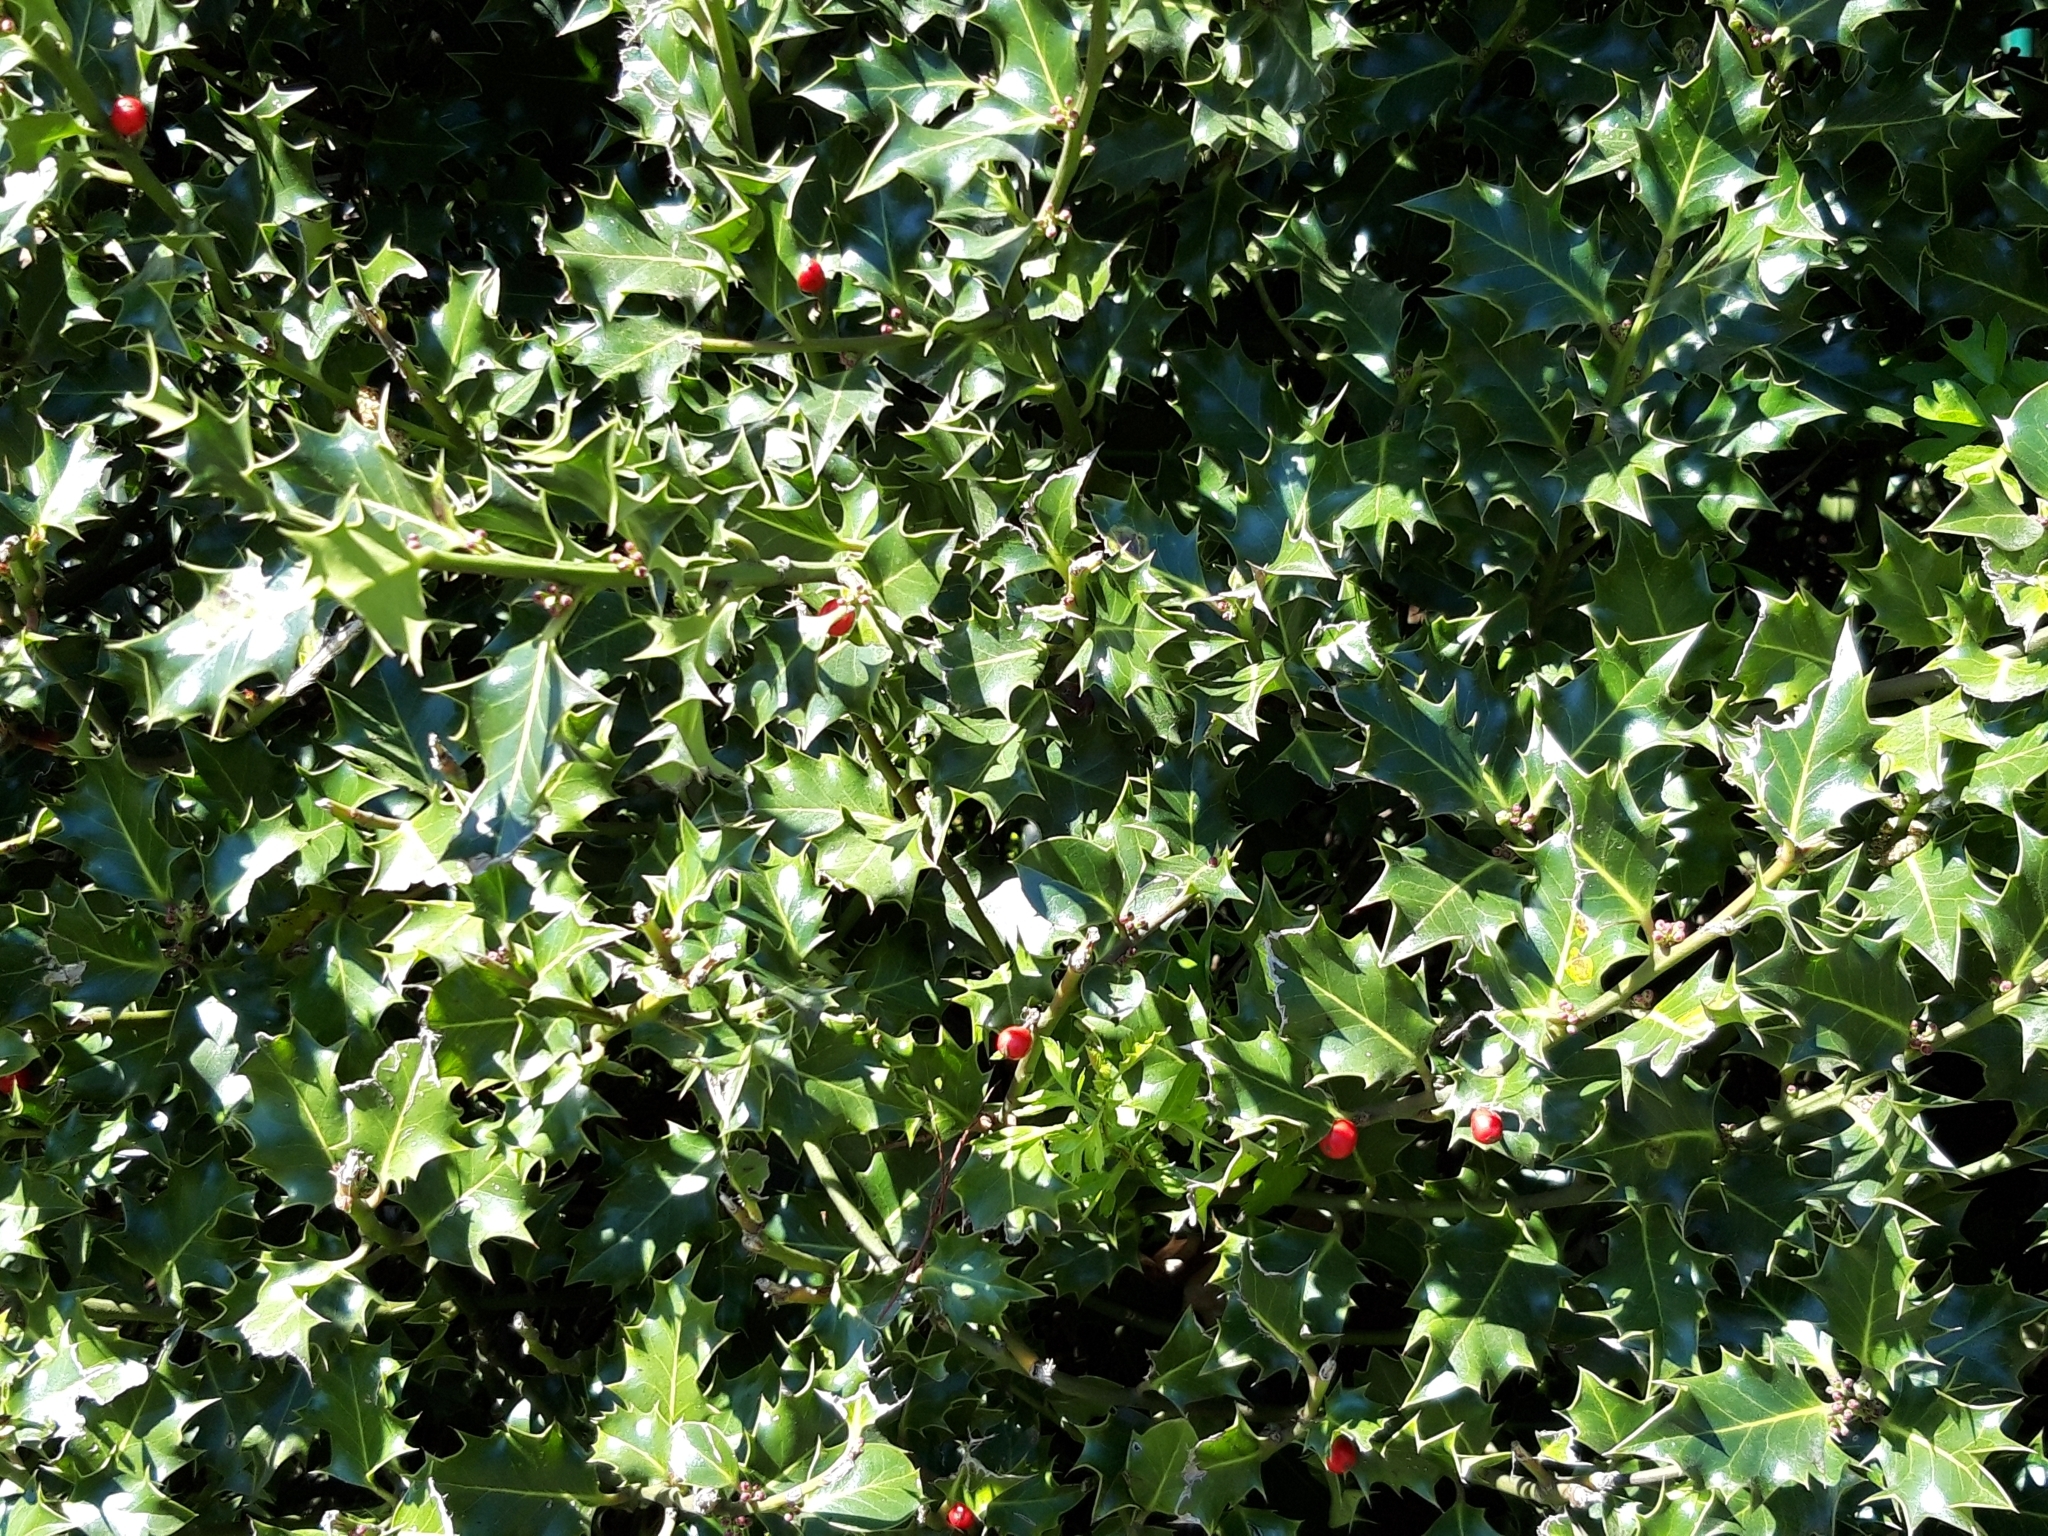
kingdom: Plantae
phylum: Tracheophyta
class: Magnoliopsida
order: Aquifoliales
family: Aquifoliaceae
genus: Ilex
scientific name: Ilex aquifolium
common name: English holly
